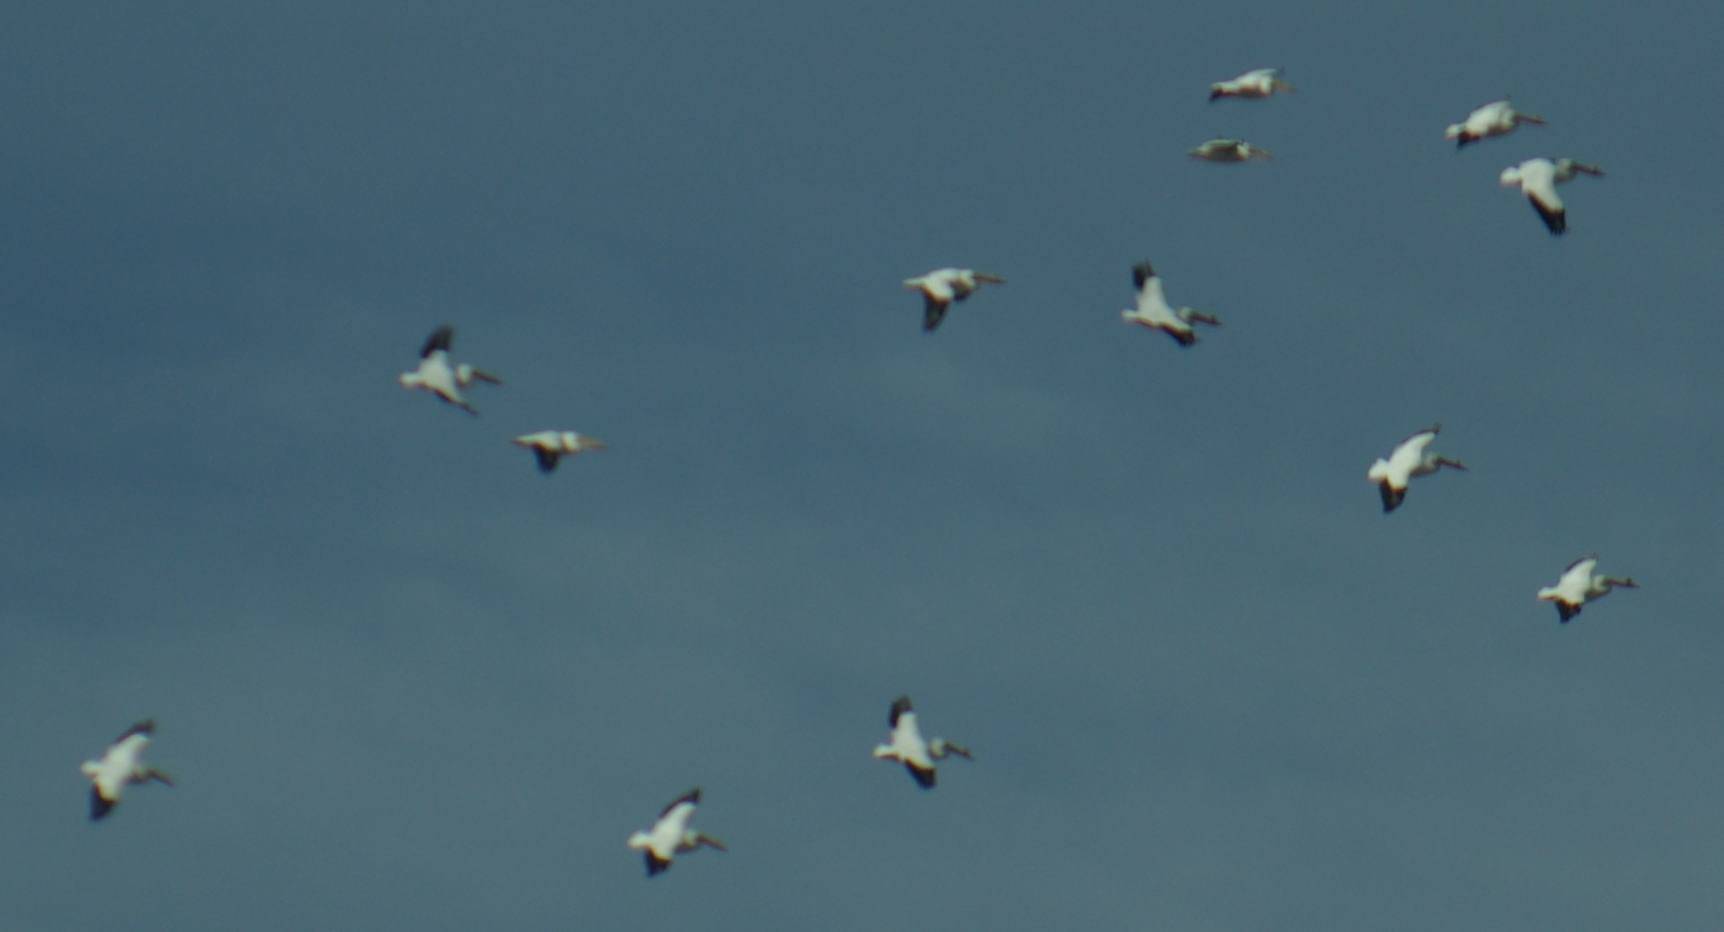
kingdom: Animalia
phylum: Chordata
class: Aves
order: Pelecaniformes
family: Pelecanidae
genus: Pelecanus
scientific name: Pelecanus erythrorhynchos
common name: American white pelican
